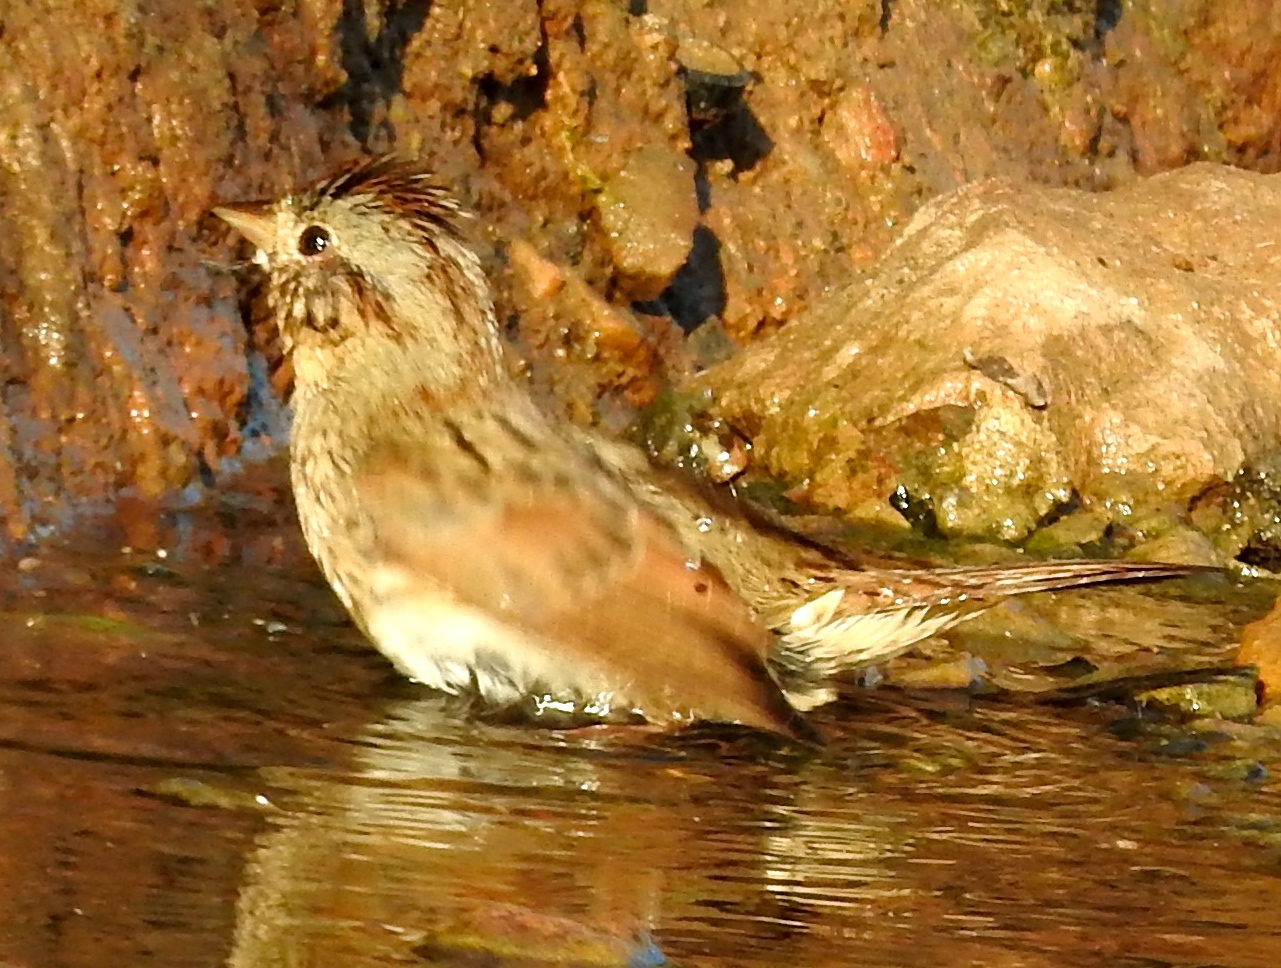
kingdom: Animalia
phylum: Chordata
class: Aves
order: Passeriformes
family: Passerellidae
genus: Melospiza
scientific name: Melospiza lincolnii
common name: Lincoln's sparrow
